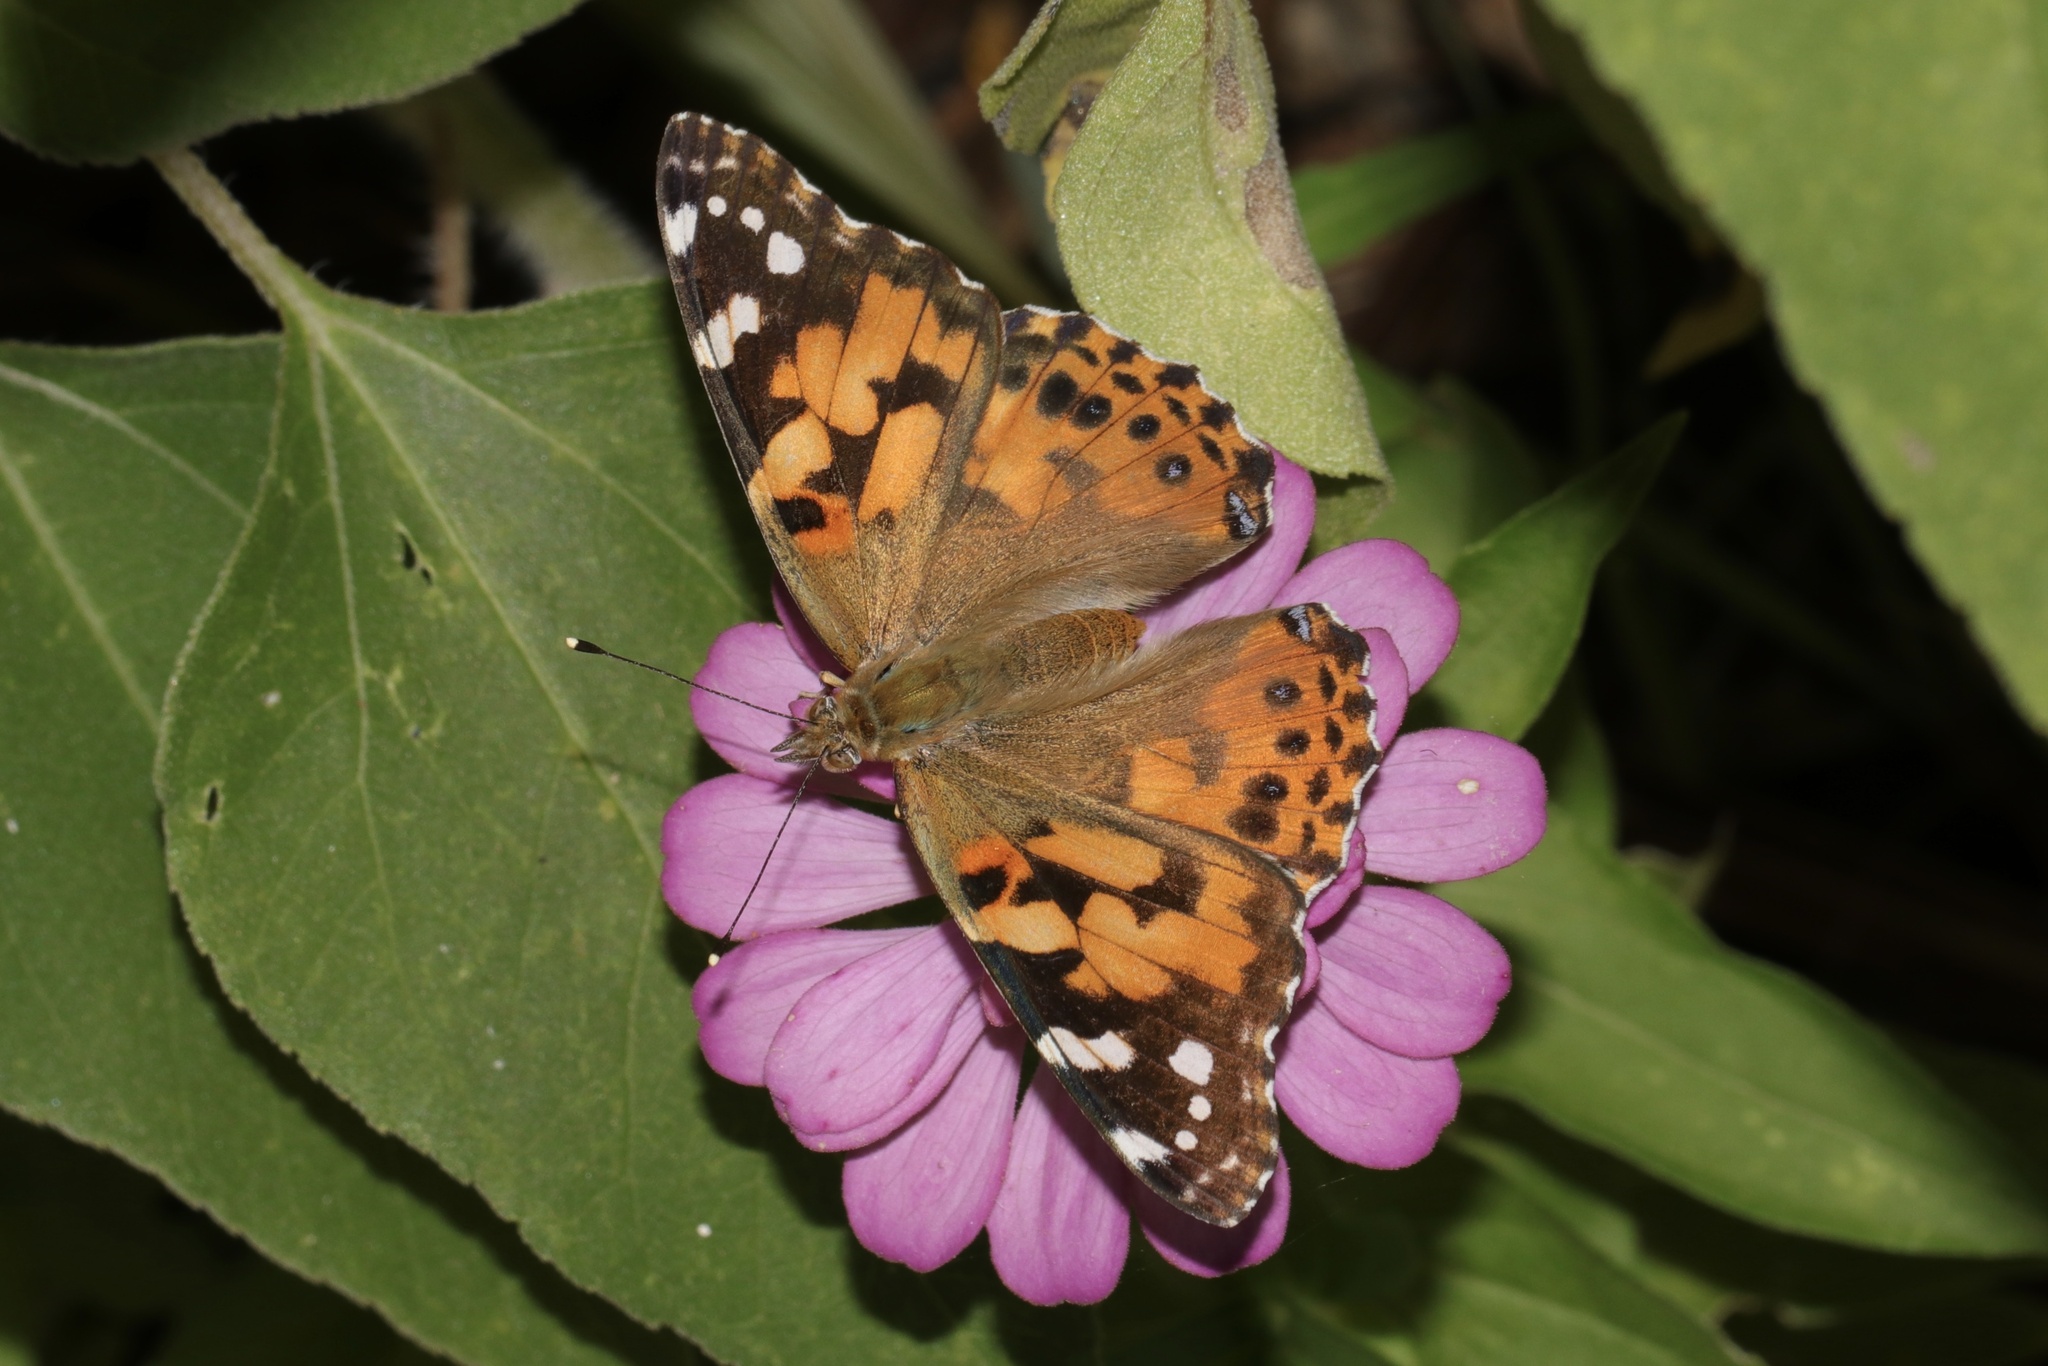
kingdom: Animalia
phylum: Arthropoda
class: Insecta
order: Lepidoptera
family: Nymphalidae
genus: Vanessa
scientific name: Vanessa cardui
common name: Painted lady
